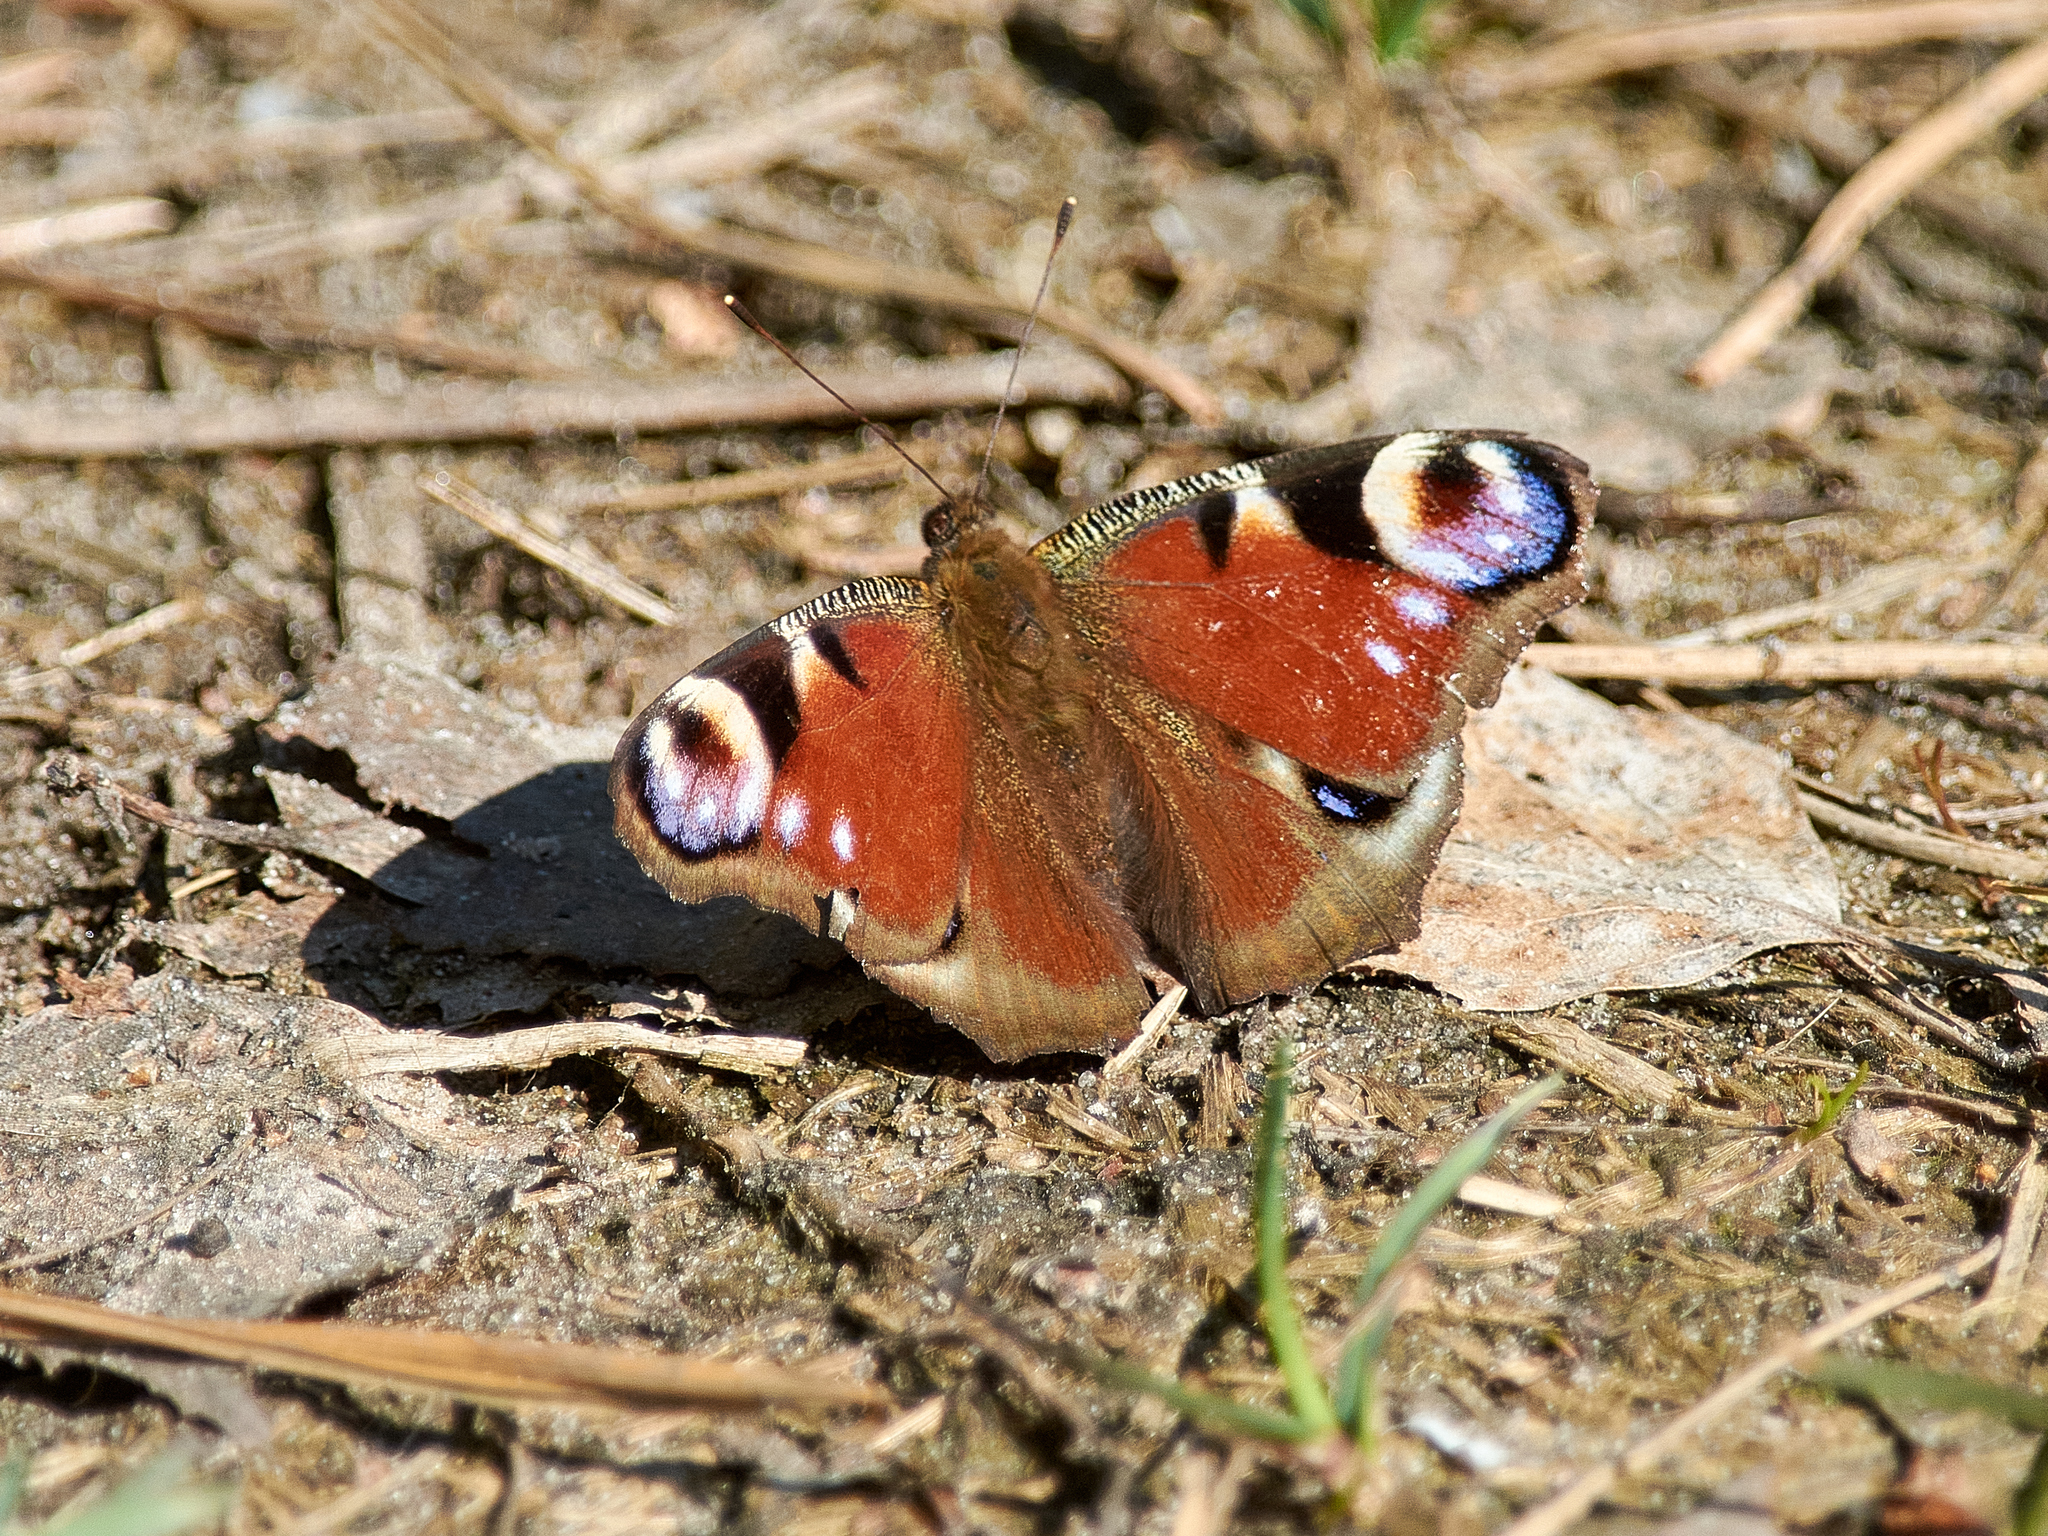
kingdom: Animalia
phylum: Arthropoda
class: Insecta
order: Lepidoptera
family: Nymphalidae
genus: Aglais
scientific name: Aglais io
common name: Peacock
